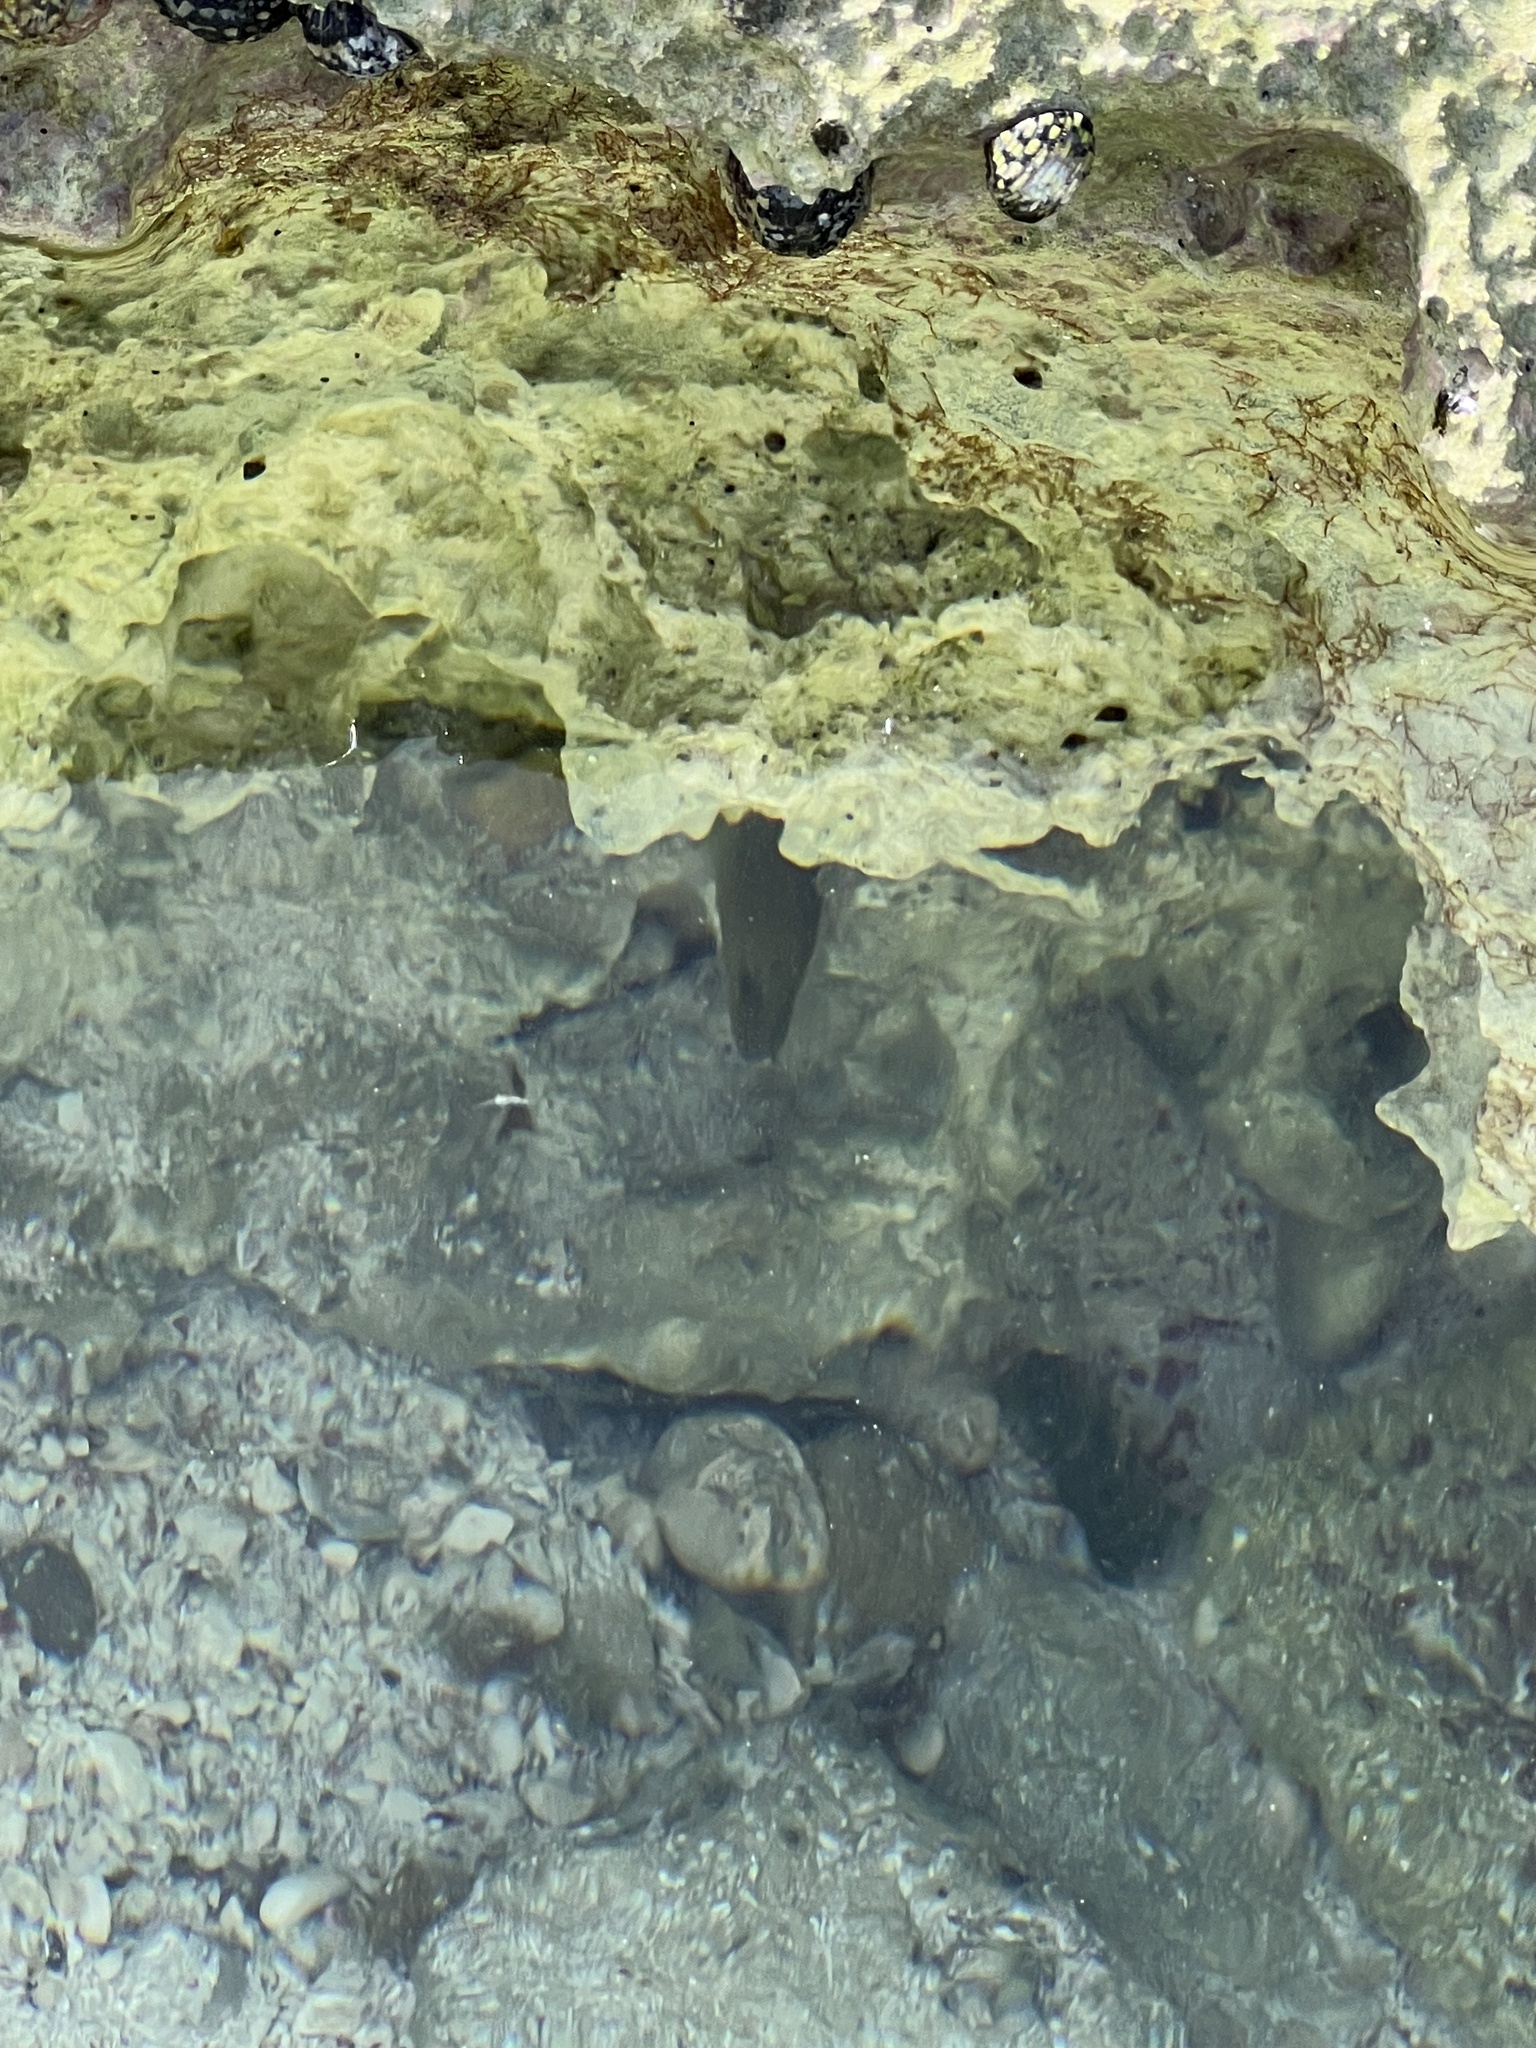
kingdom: Animalia
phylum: Chordata
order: Anguilliformes
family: Muraenidae
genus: Gymnothorax
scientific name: Gymnothorax funebris
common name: Green moray
